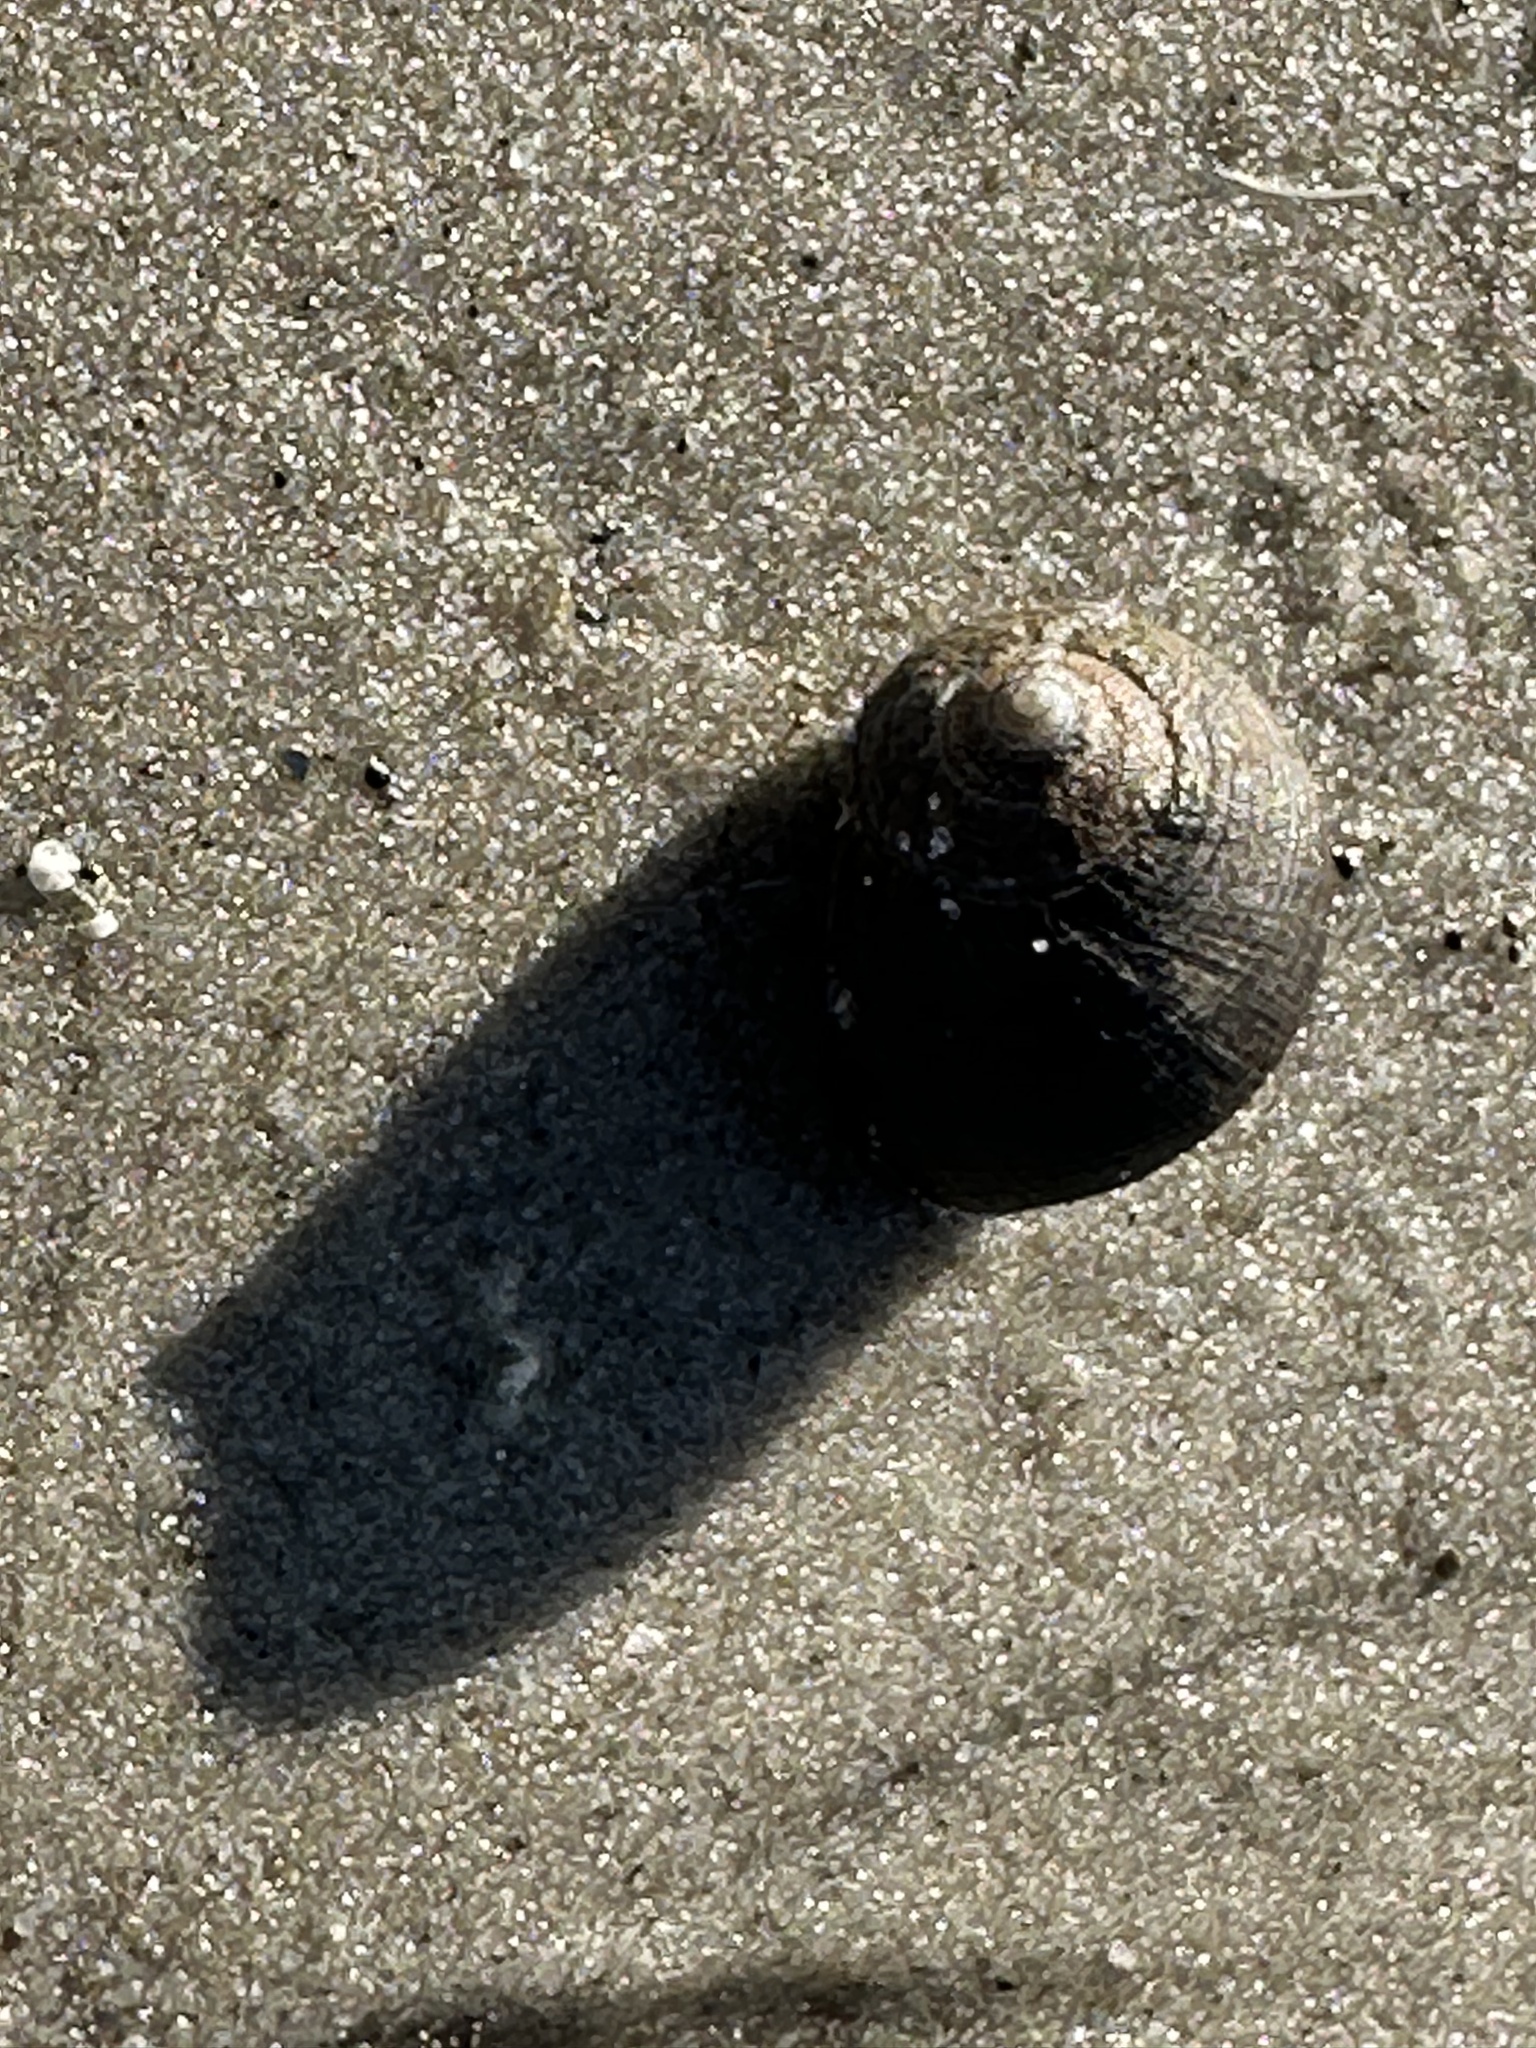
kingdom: Animalia
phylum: Mollusca
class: Gastropoda
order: Littorinimorpha
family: Littorinidae
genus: Littorina
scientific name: Littorina littorea
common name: Common periwinkle
